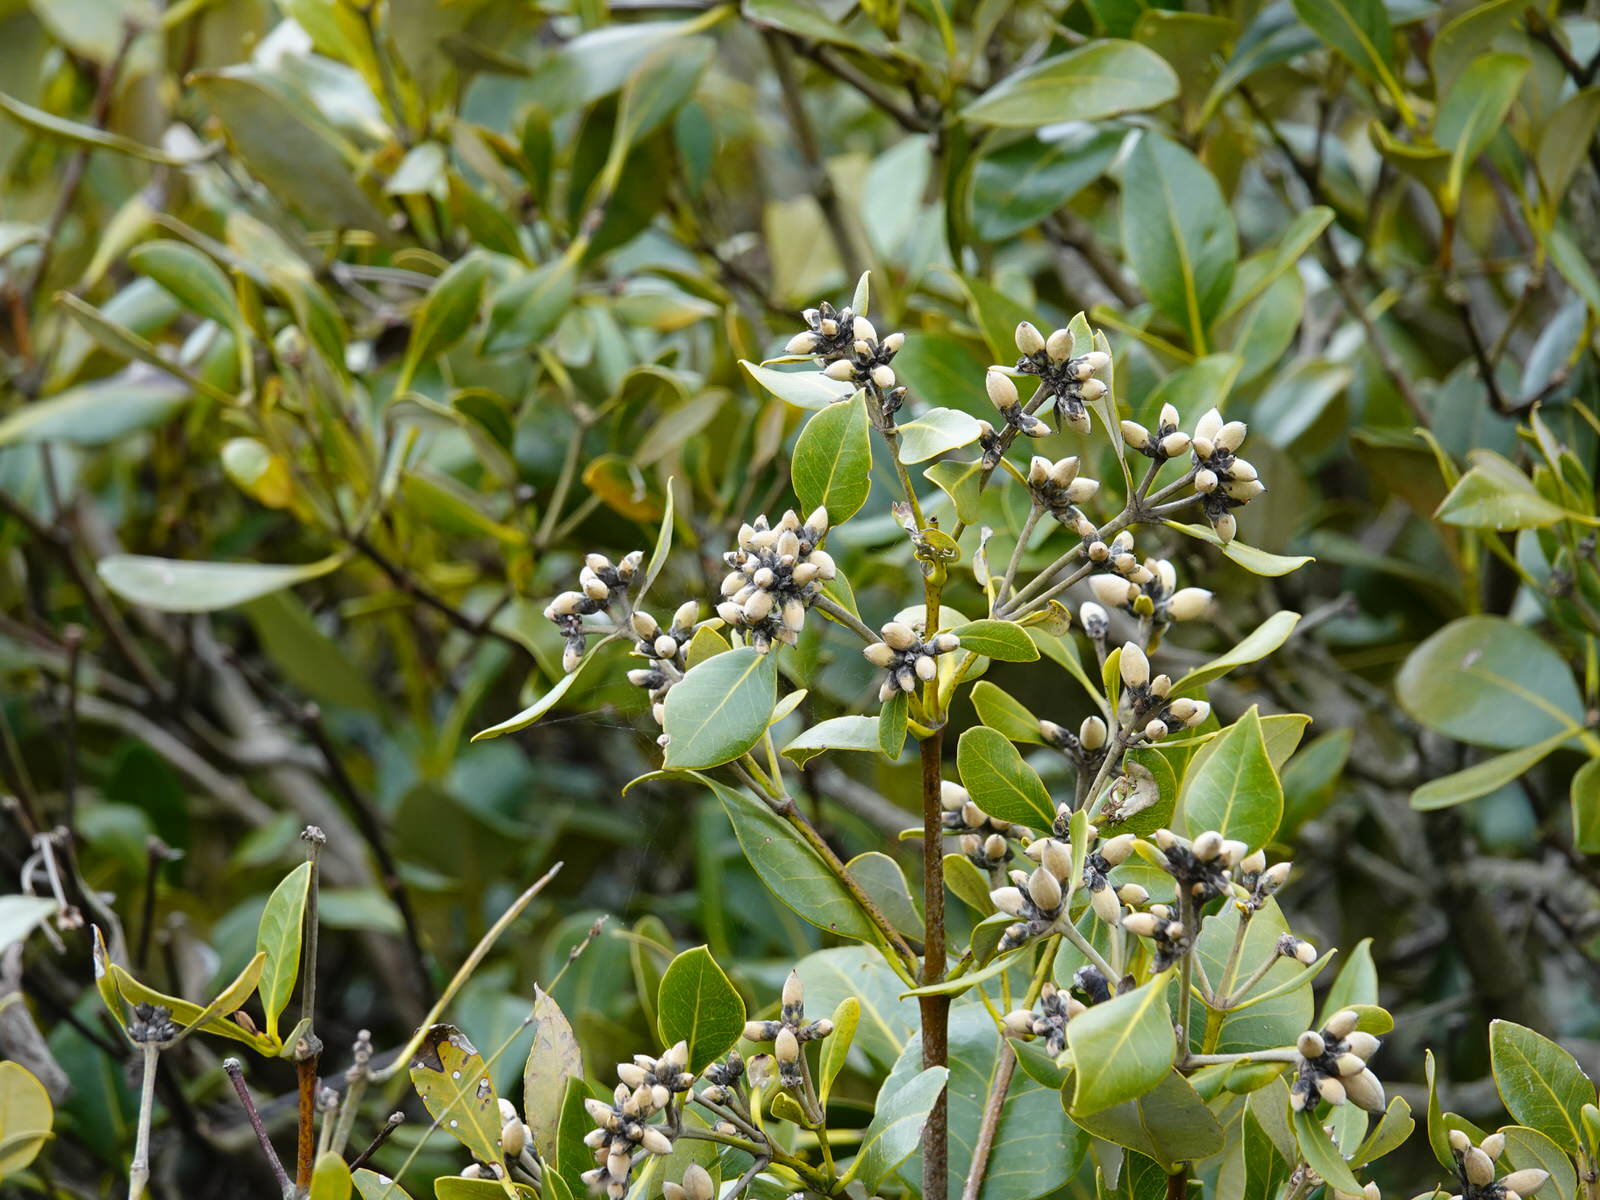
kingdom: Plantae
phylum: Tracheophyta
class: Magnoliopsida
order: Lamiales
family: Acanthaceae
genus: Avicennia
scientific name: Avicennia marina
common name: Gray mangrove
